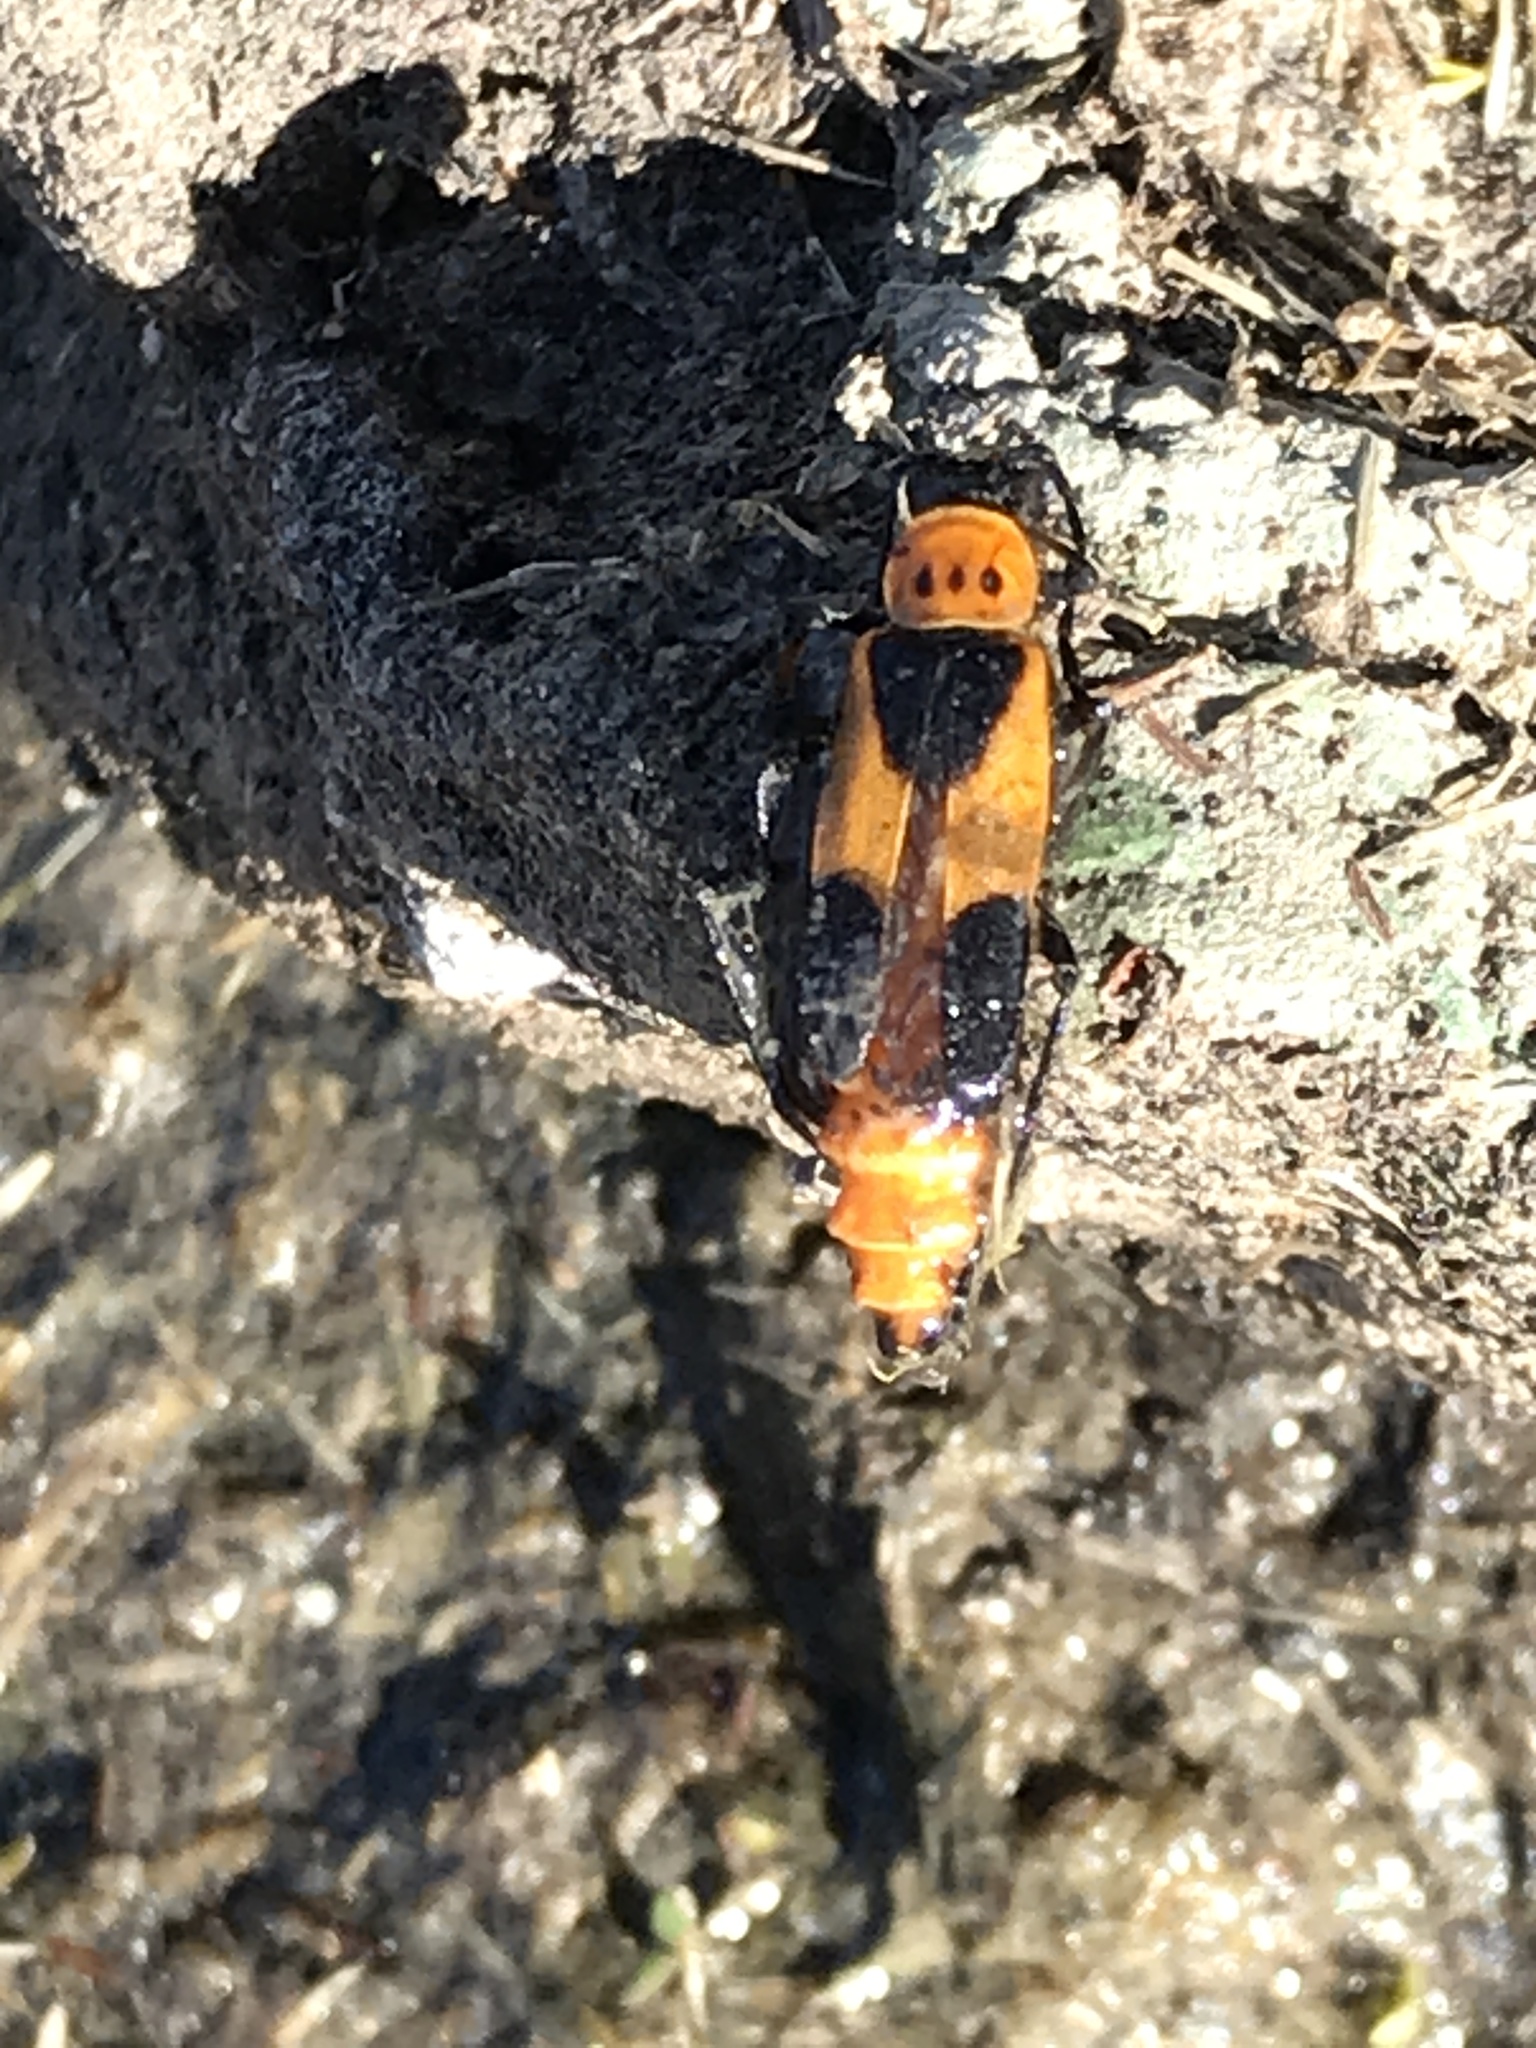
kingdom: Animalia
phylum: Arthropoda
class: Insecta
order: Coleoptera
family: Cantharidae
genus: Chauliognathus
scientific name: Chauliognathus basalis
